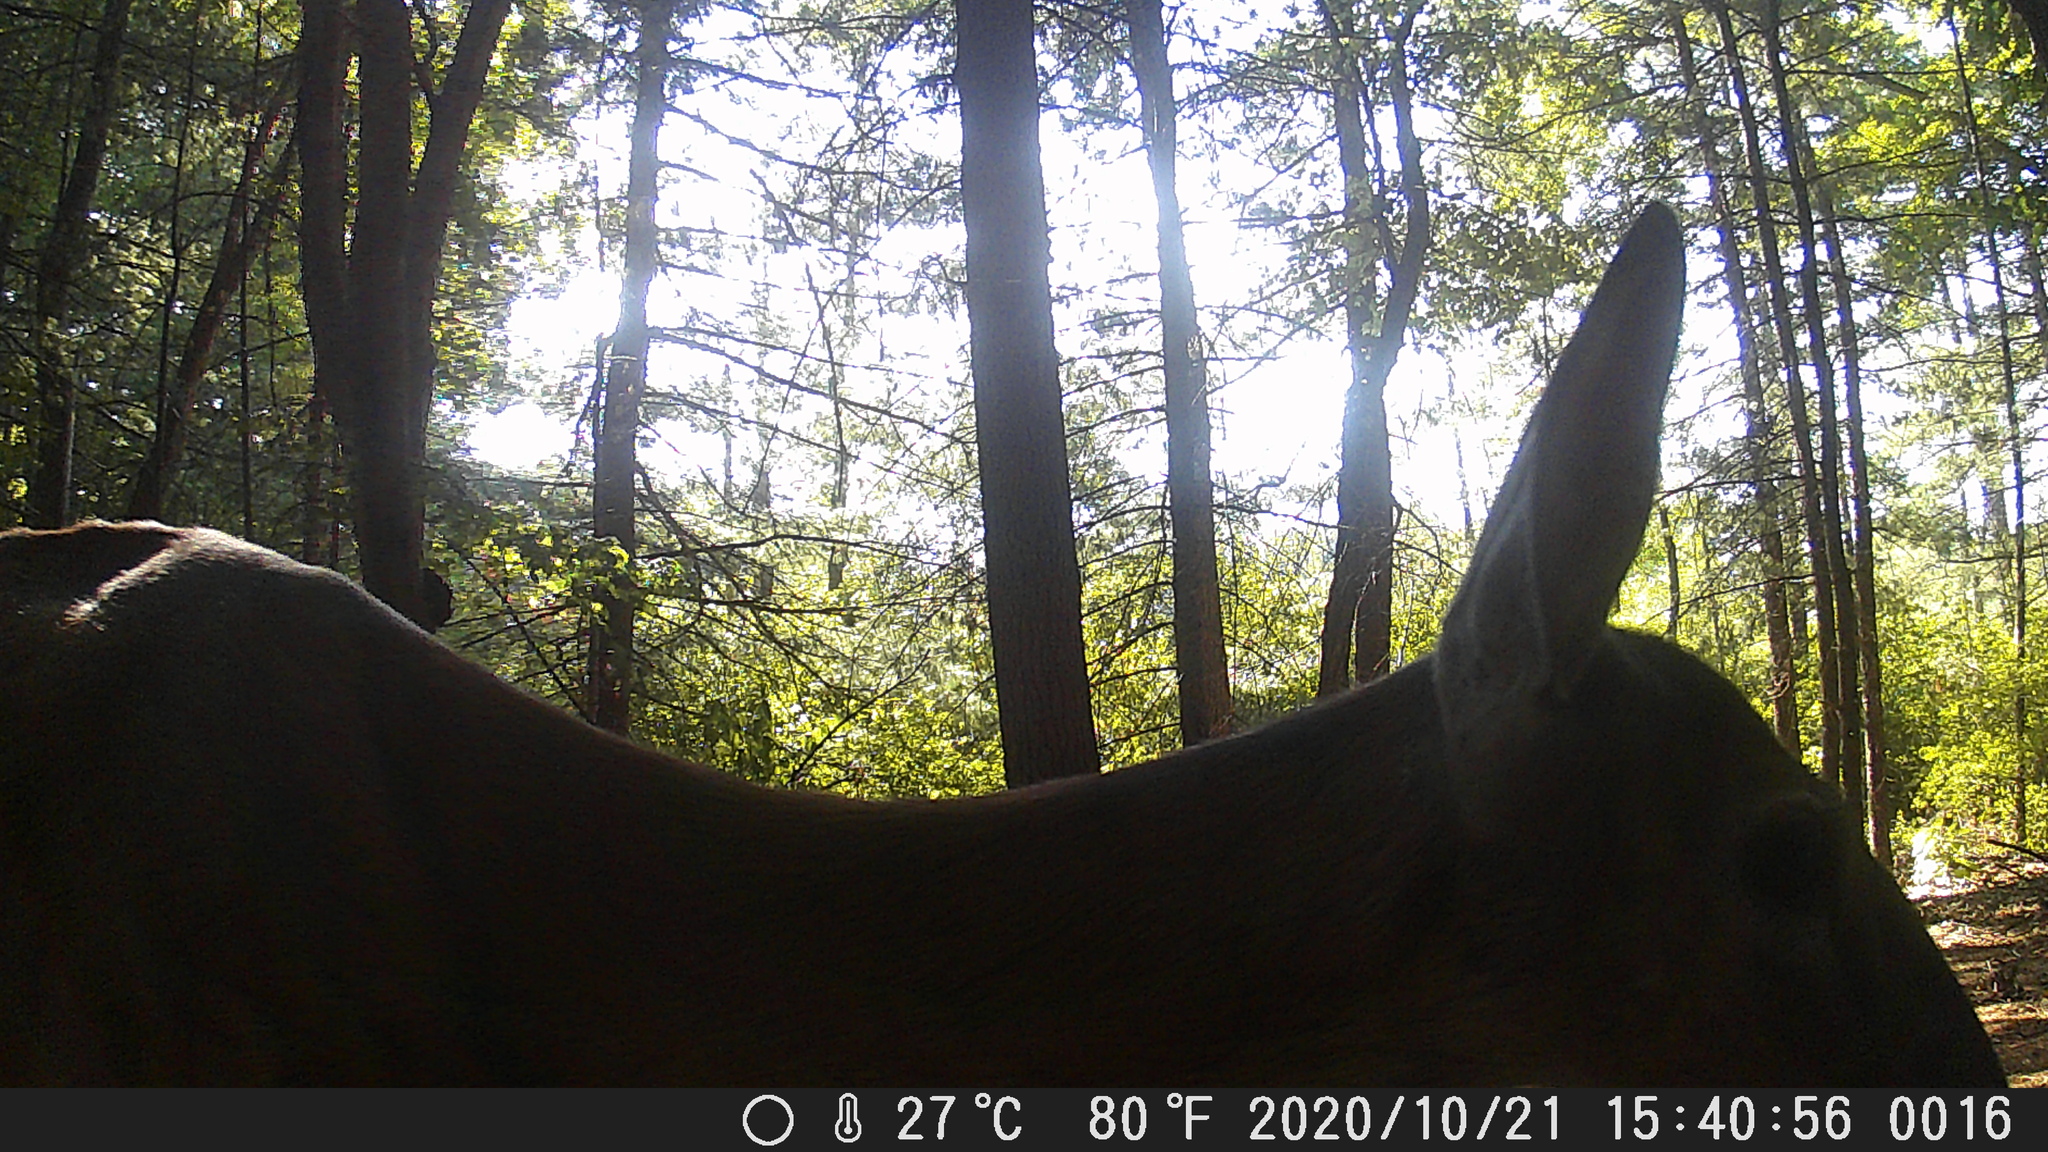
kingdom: Animalia
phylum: Chordata
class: Mammalia
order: Artiodactyla
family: Cervidae
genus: Odocoileus
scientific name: Odocoileus virginianus
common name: White-tailed deer
